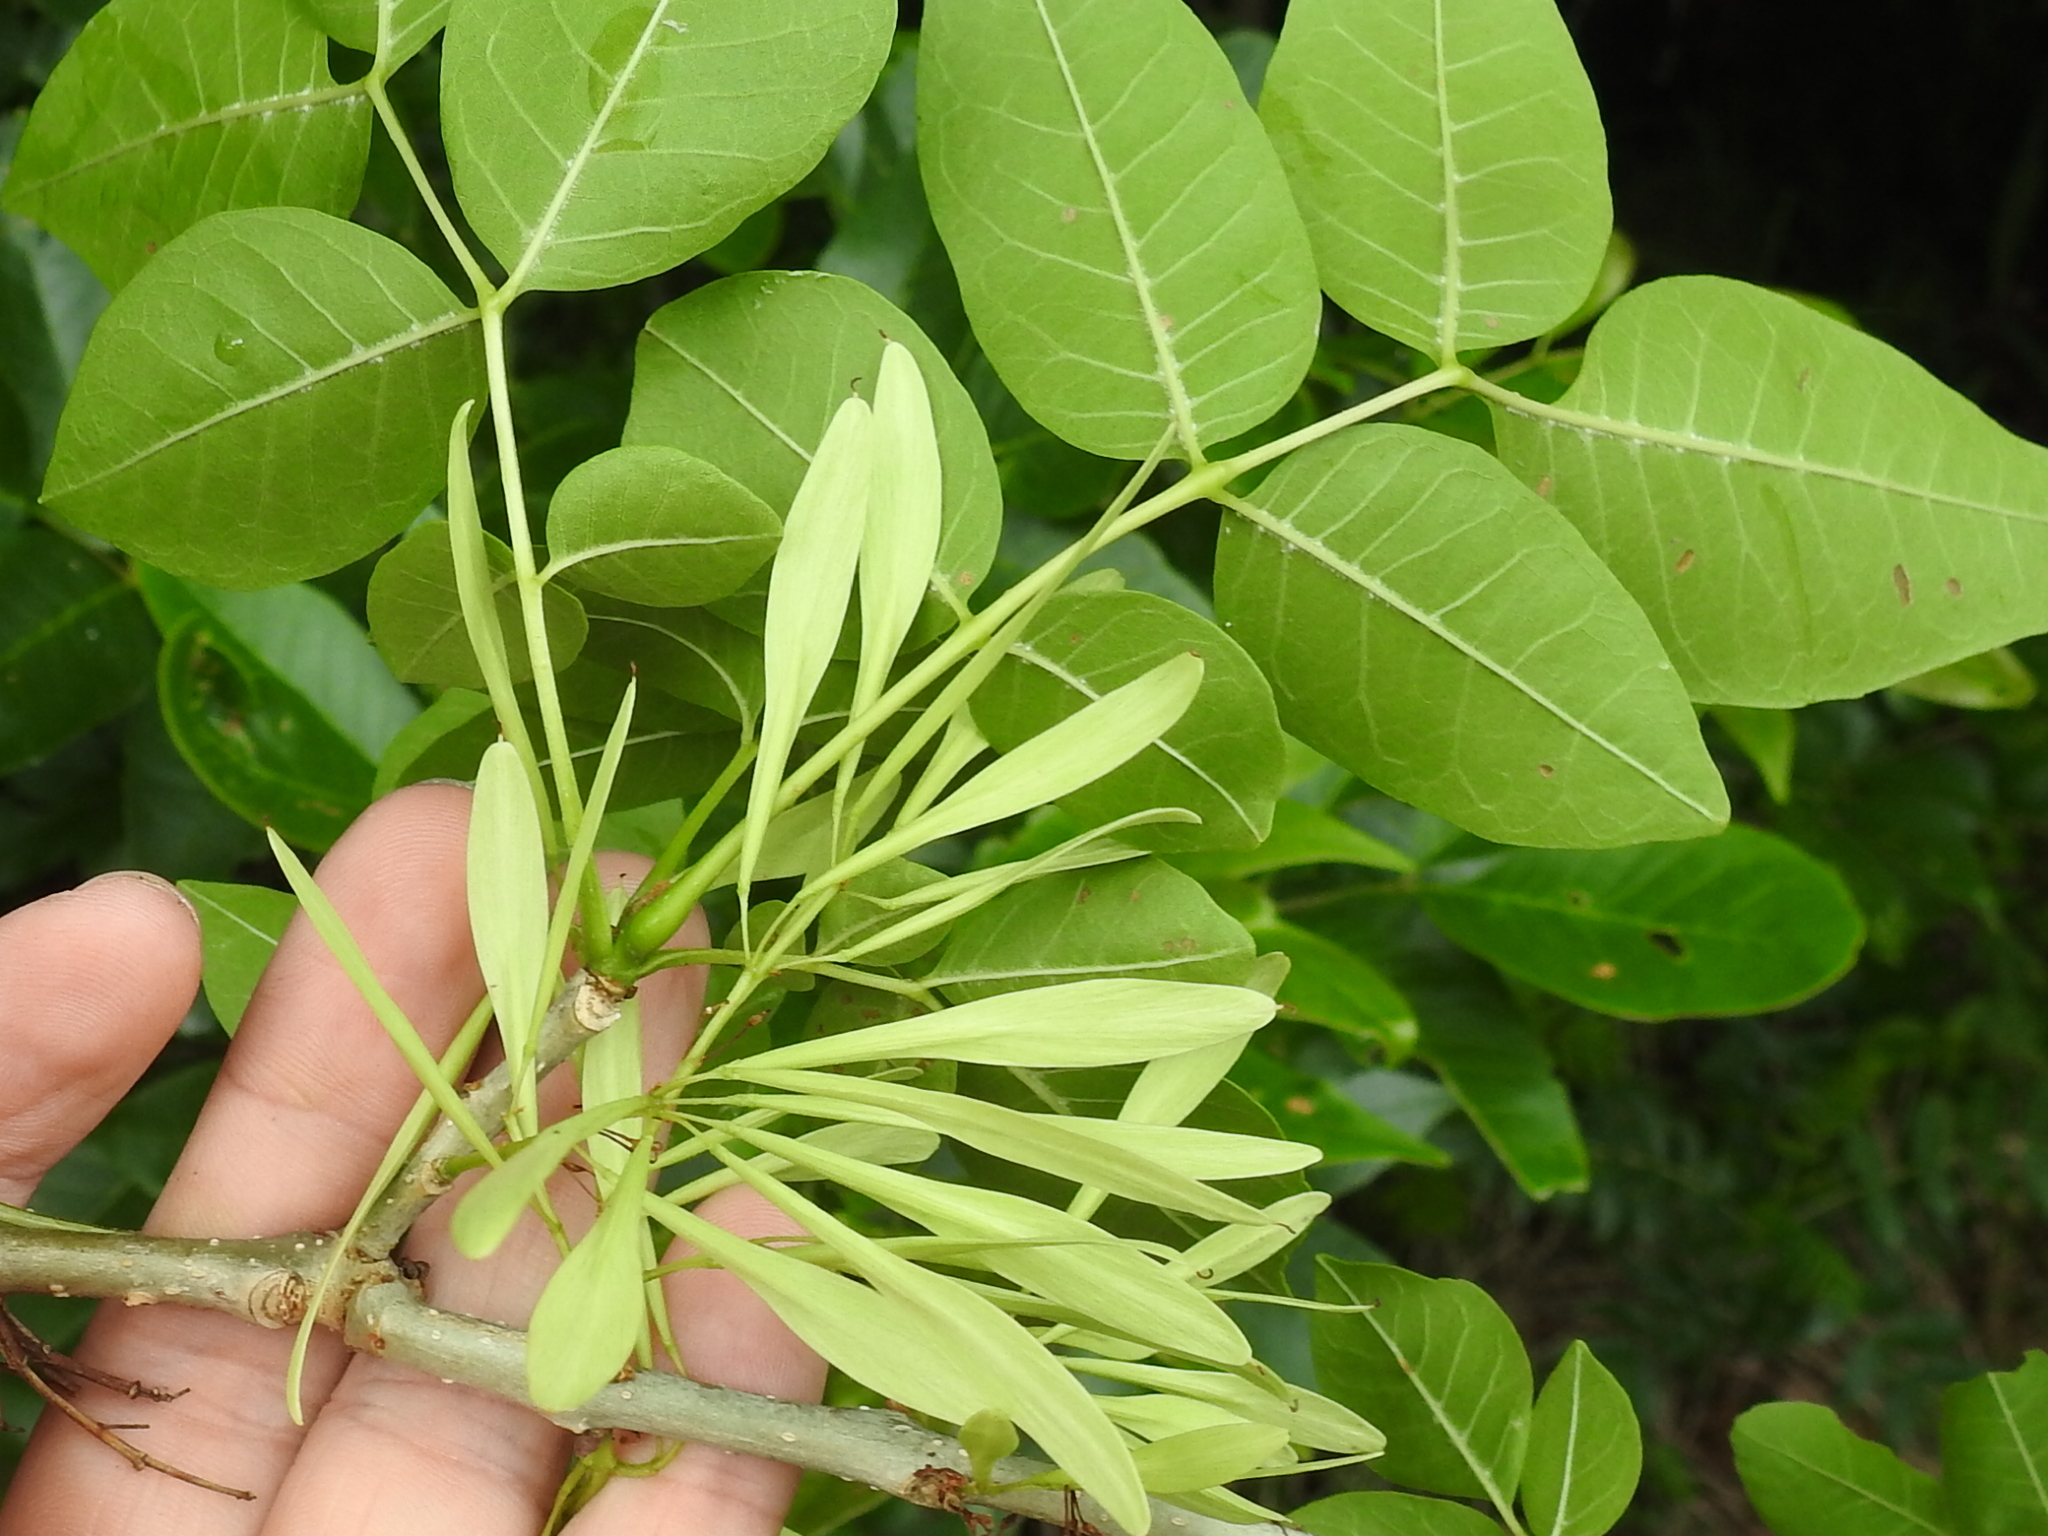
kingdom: Plantae
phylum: Tracheophyta
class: Magnoliopsida
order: Lamiales
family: Oleaceae
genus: Fraxinus
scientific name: Fraxinus pennsylvanica
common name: Green ash
